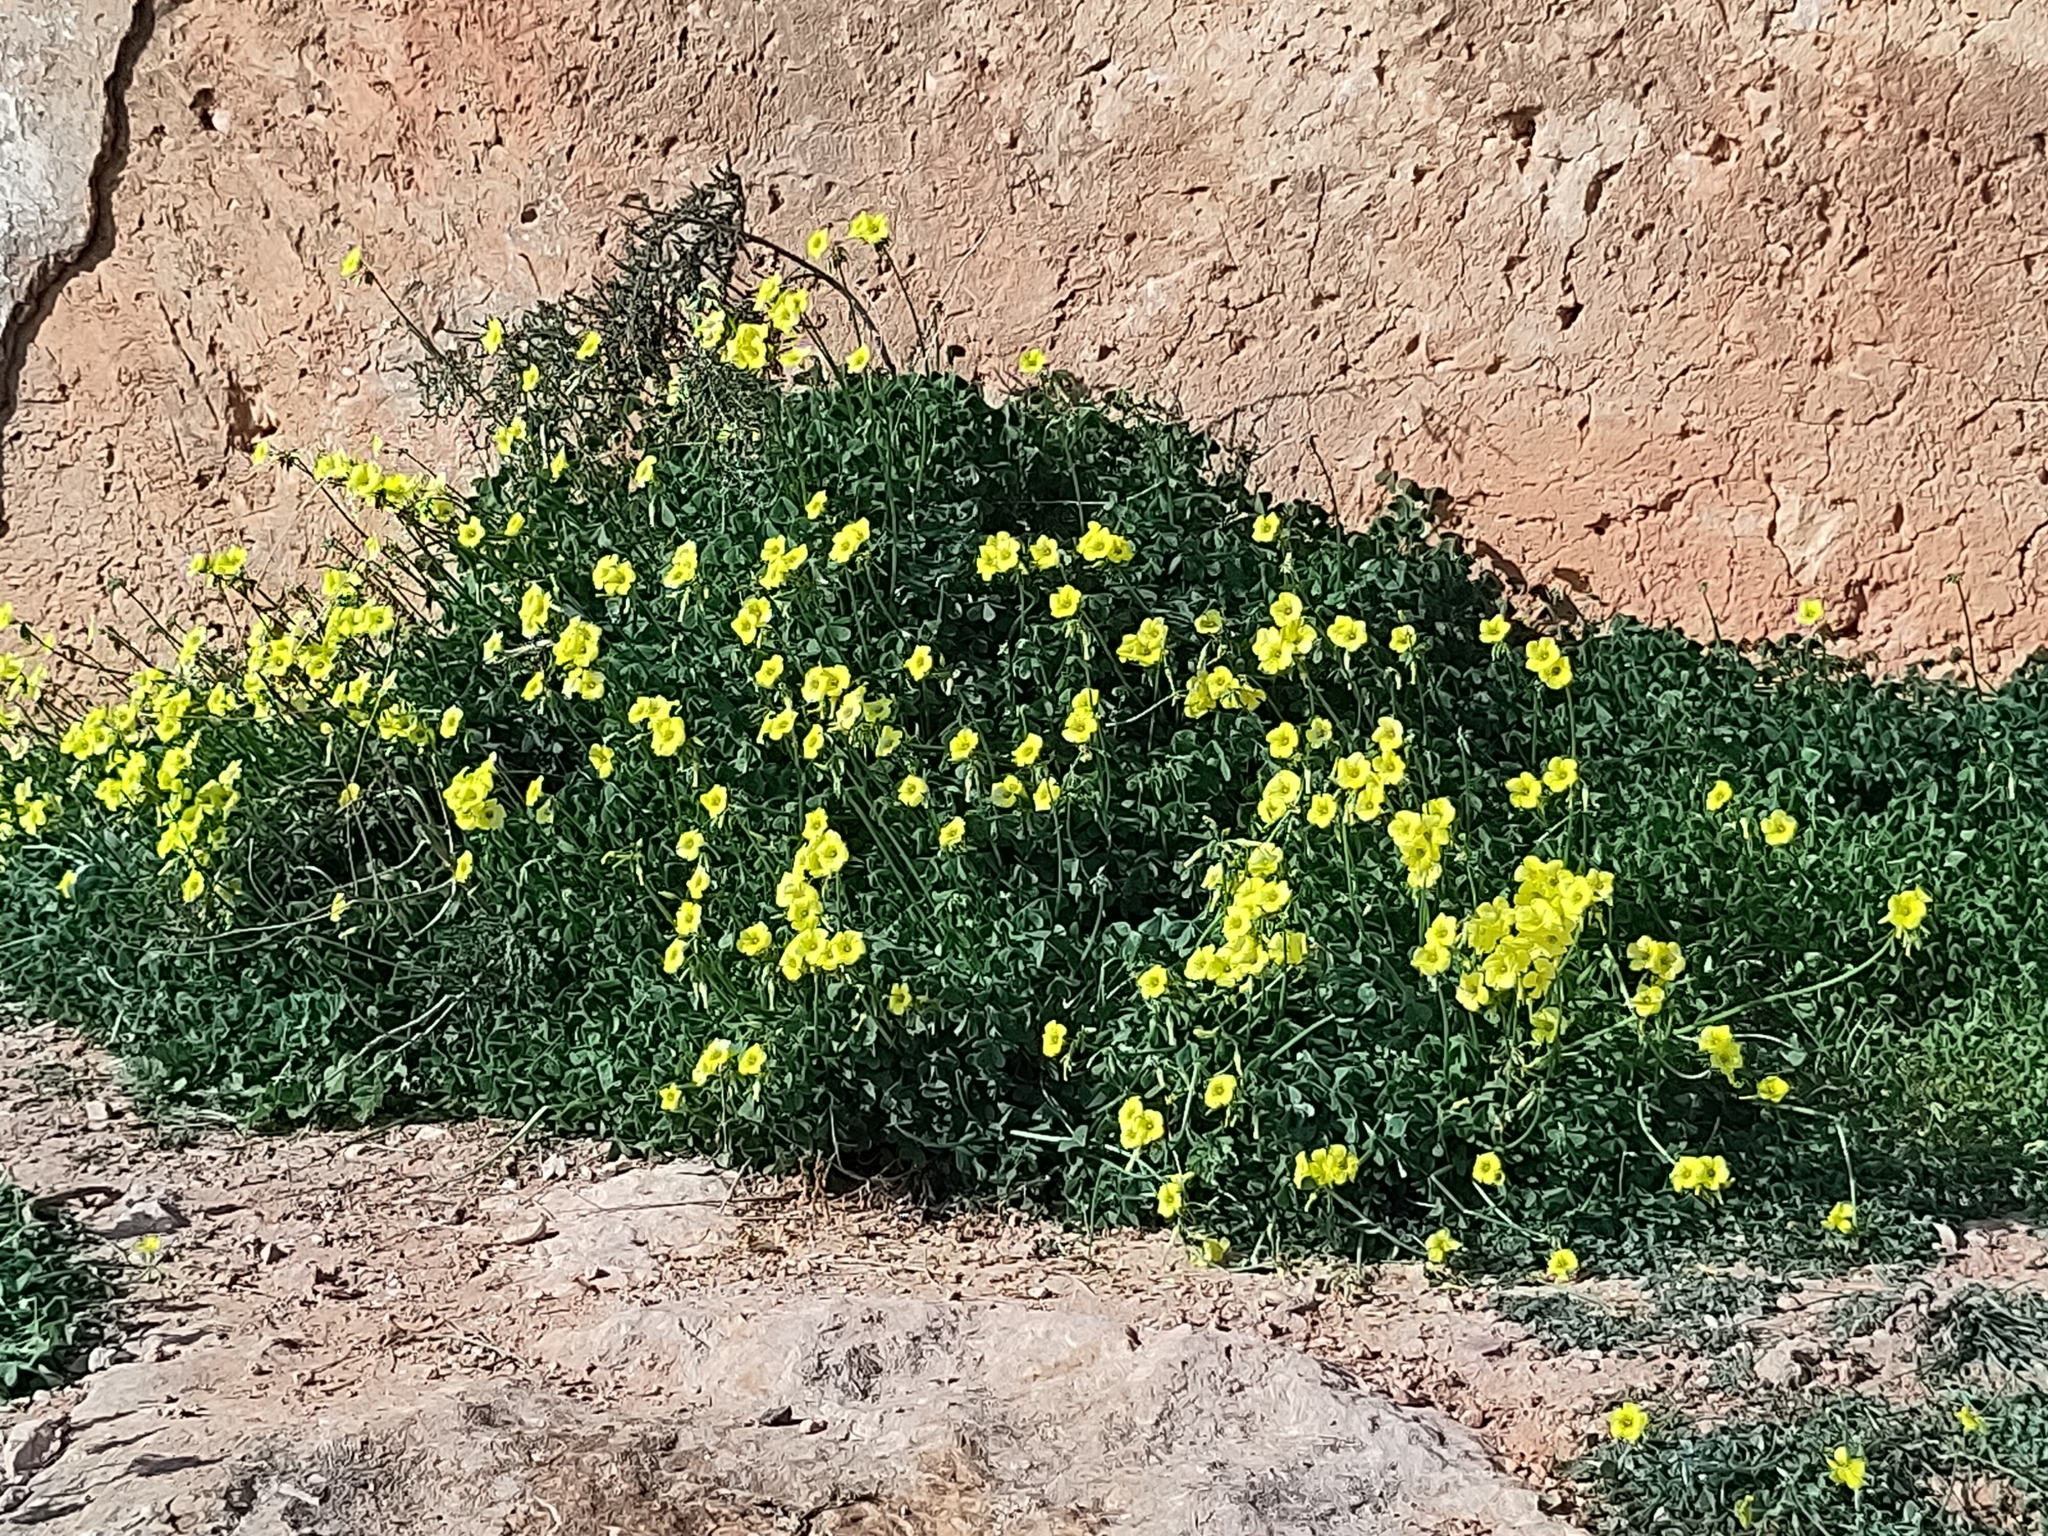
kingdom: Plantae
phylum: Tracheophyta
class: Magnoliopsida
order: Oxalidales
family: Oxalidaceae
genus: Oxalis
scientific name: Oxalis pes-caprae
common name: Bermuda-buttercup
